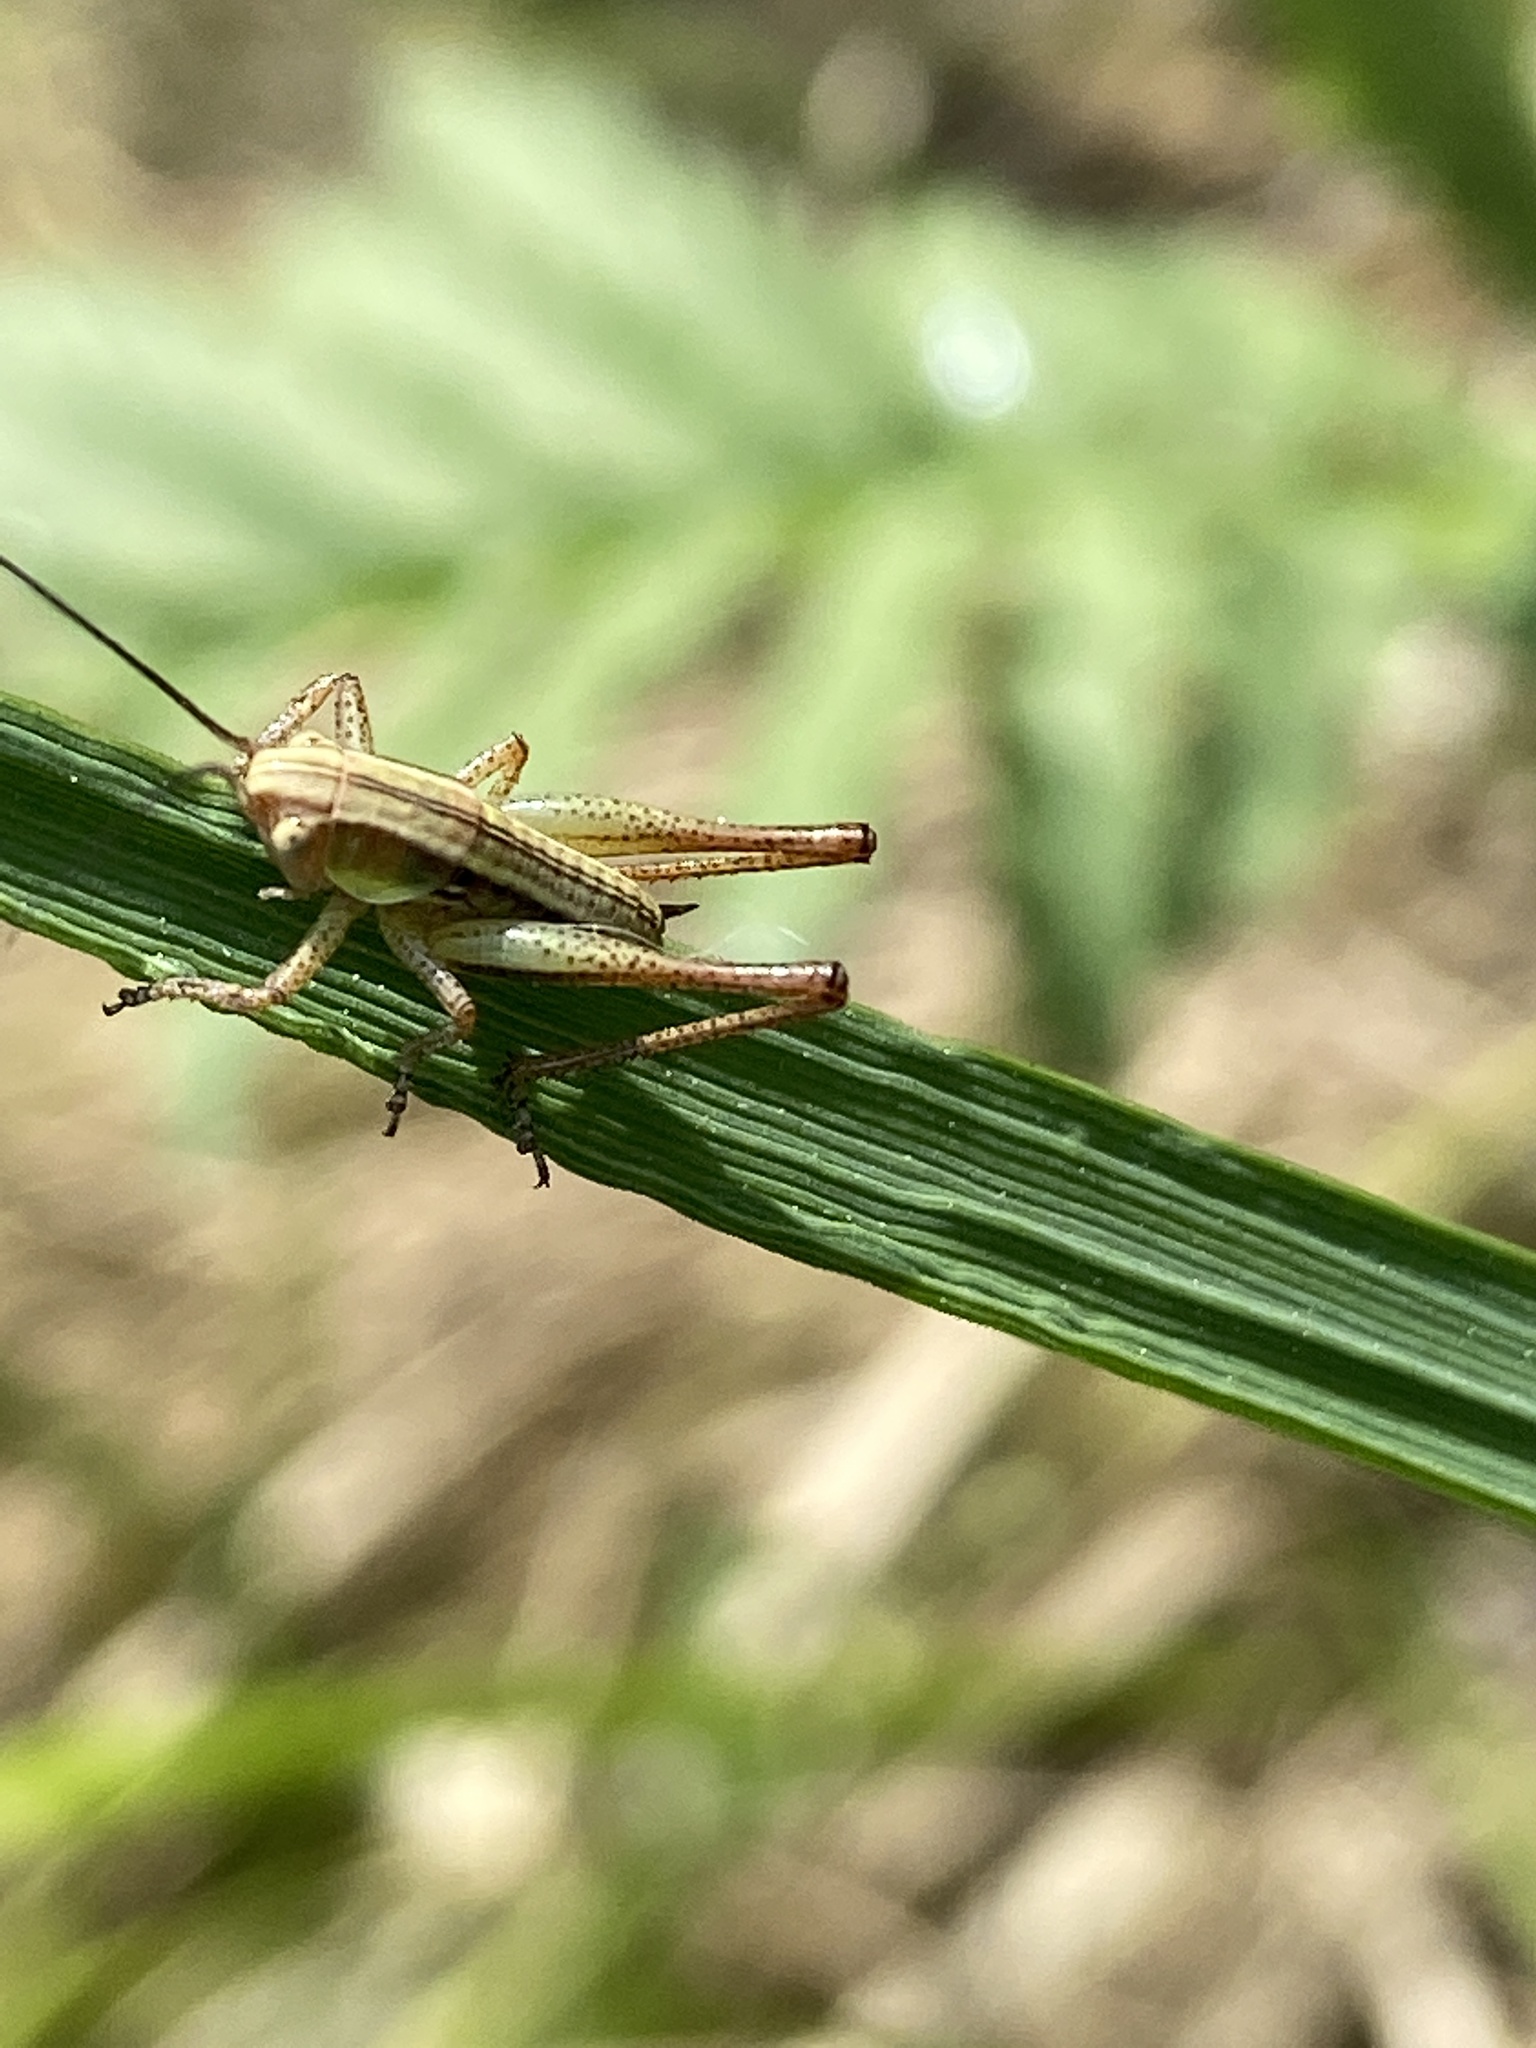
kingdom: Animalia
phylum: Arthropoda
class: Insecta
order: Orthoptera
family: Tettigoniidae
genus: Roeseliana
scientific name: Roeseliana roeselii
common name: Roesel's bush cricket
